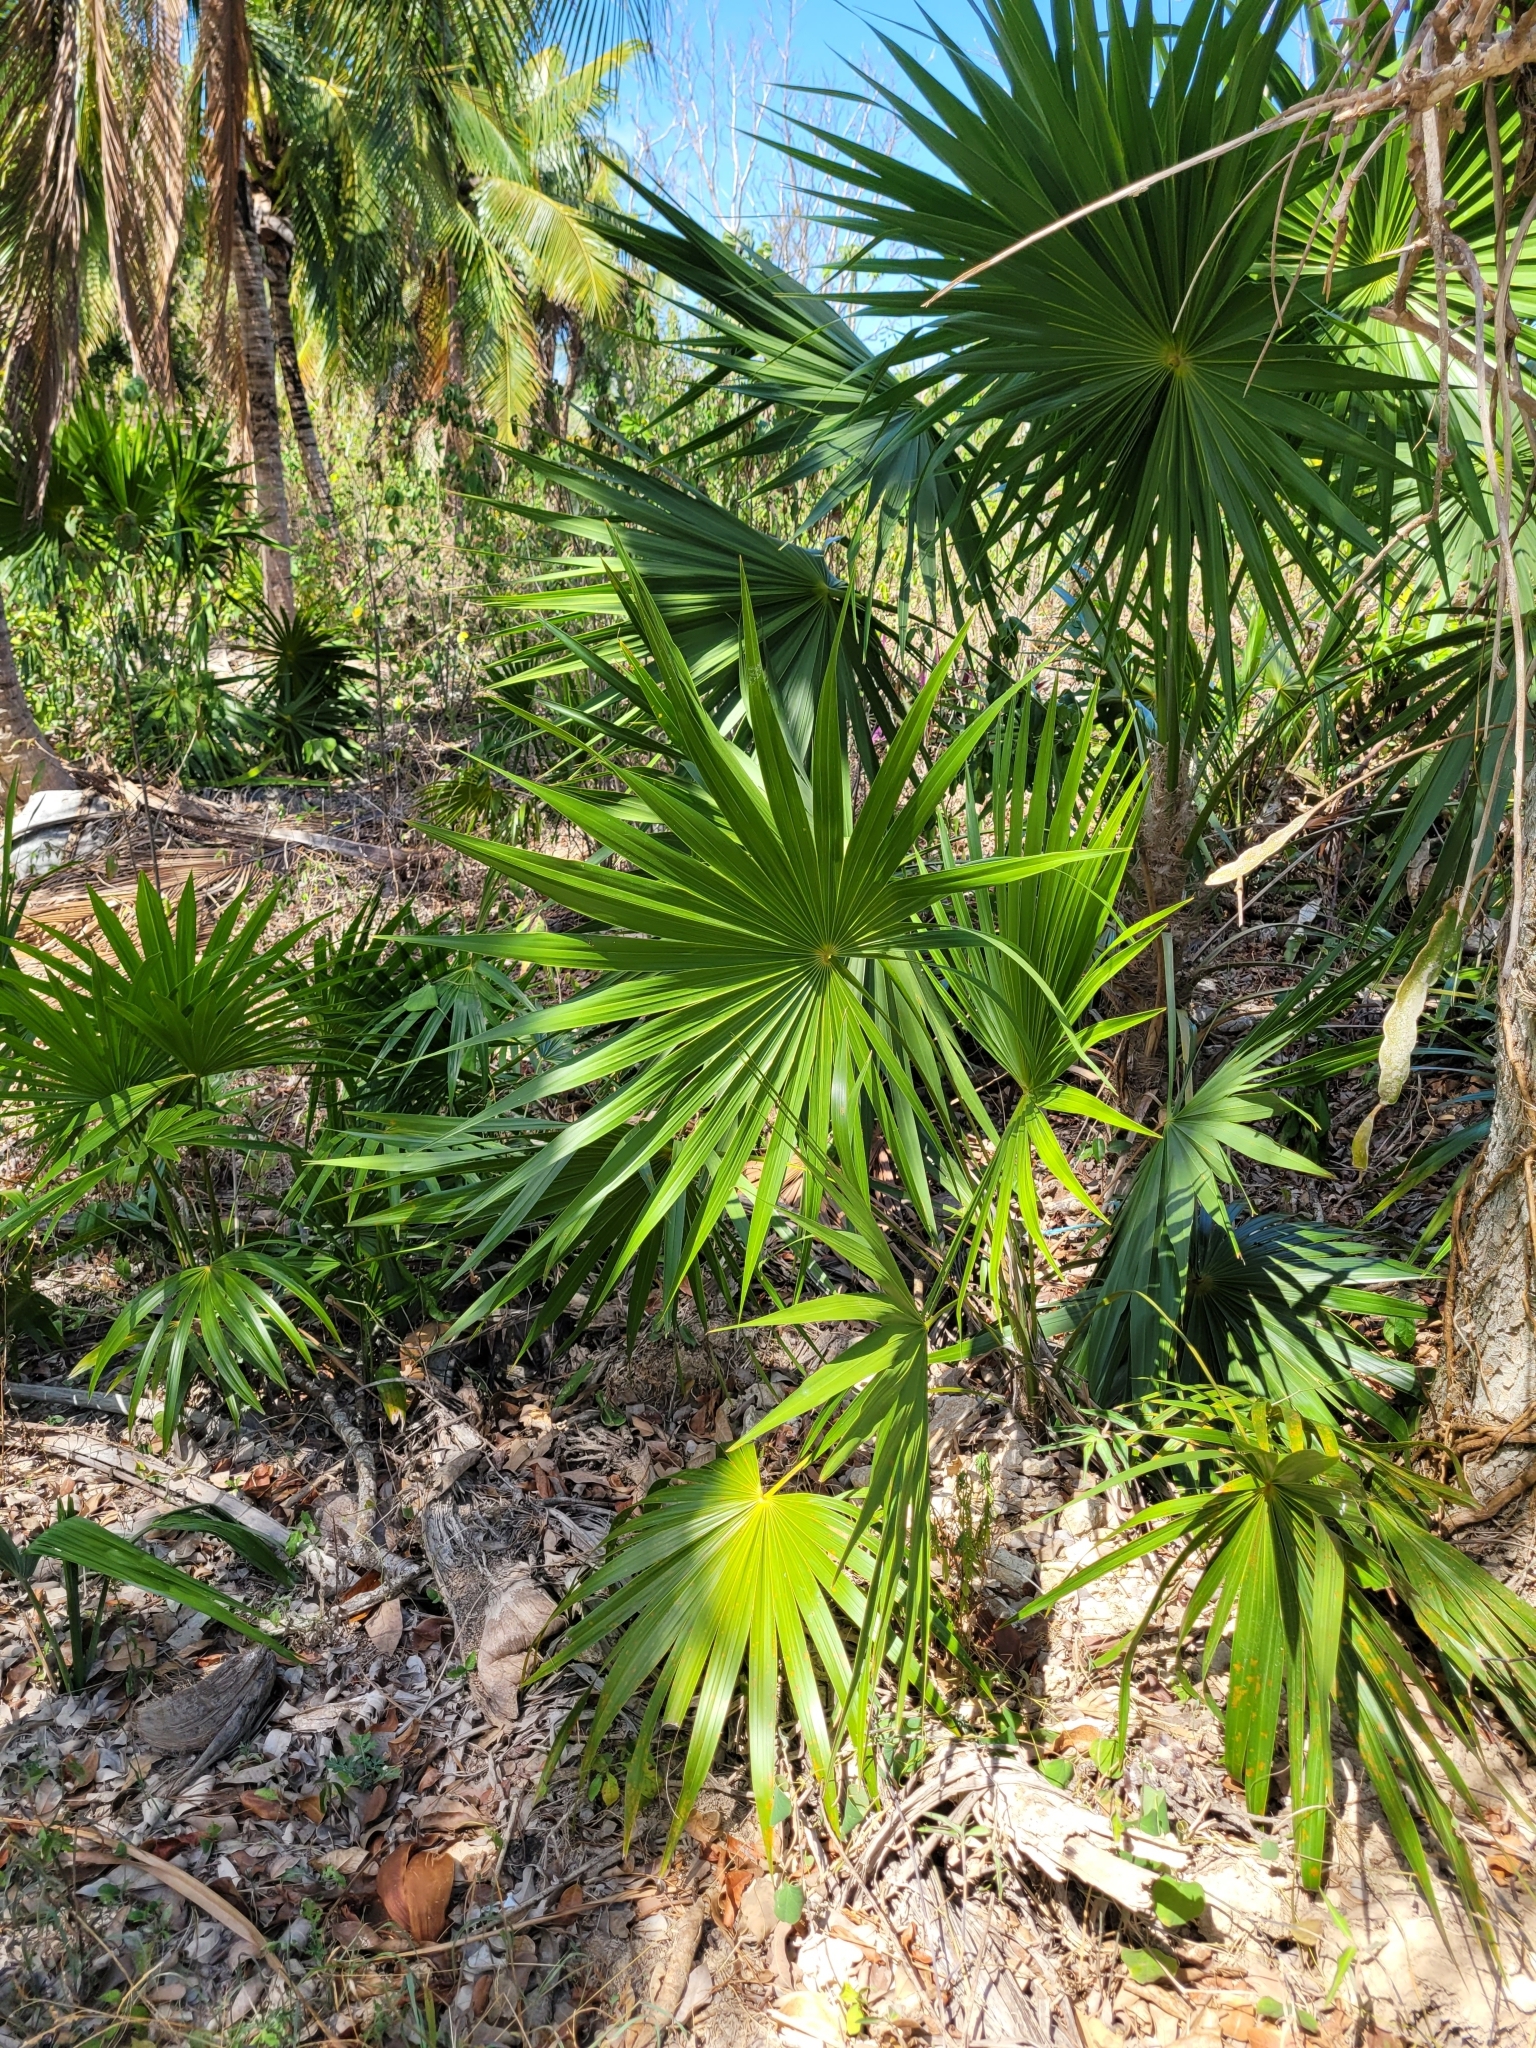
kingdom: Plantae
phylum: Tracheophyta
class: Liliopsida
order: Arecales
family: Arecaceae
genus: Thrinax
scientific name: Thrinax radiata
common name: Florida thatch
